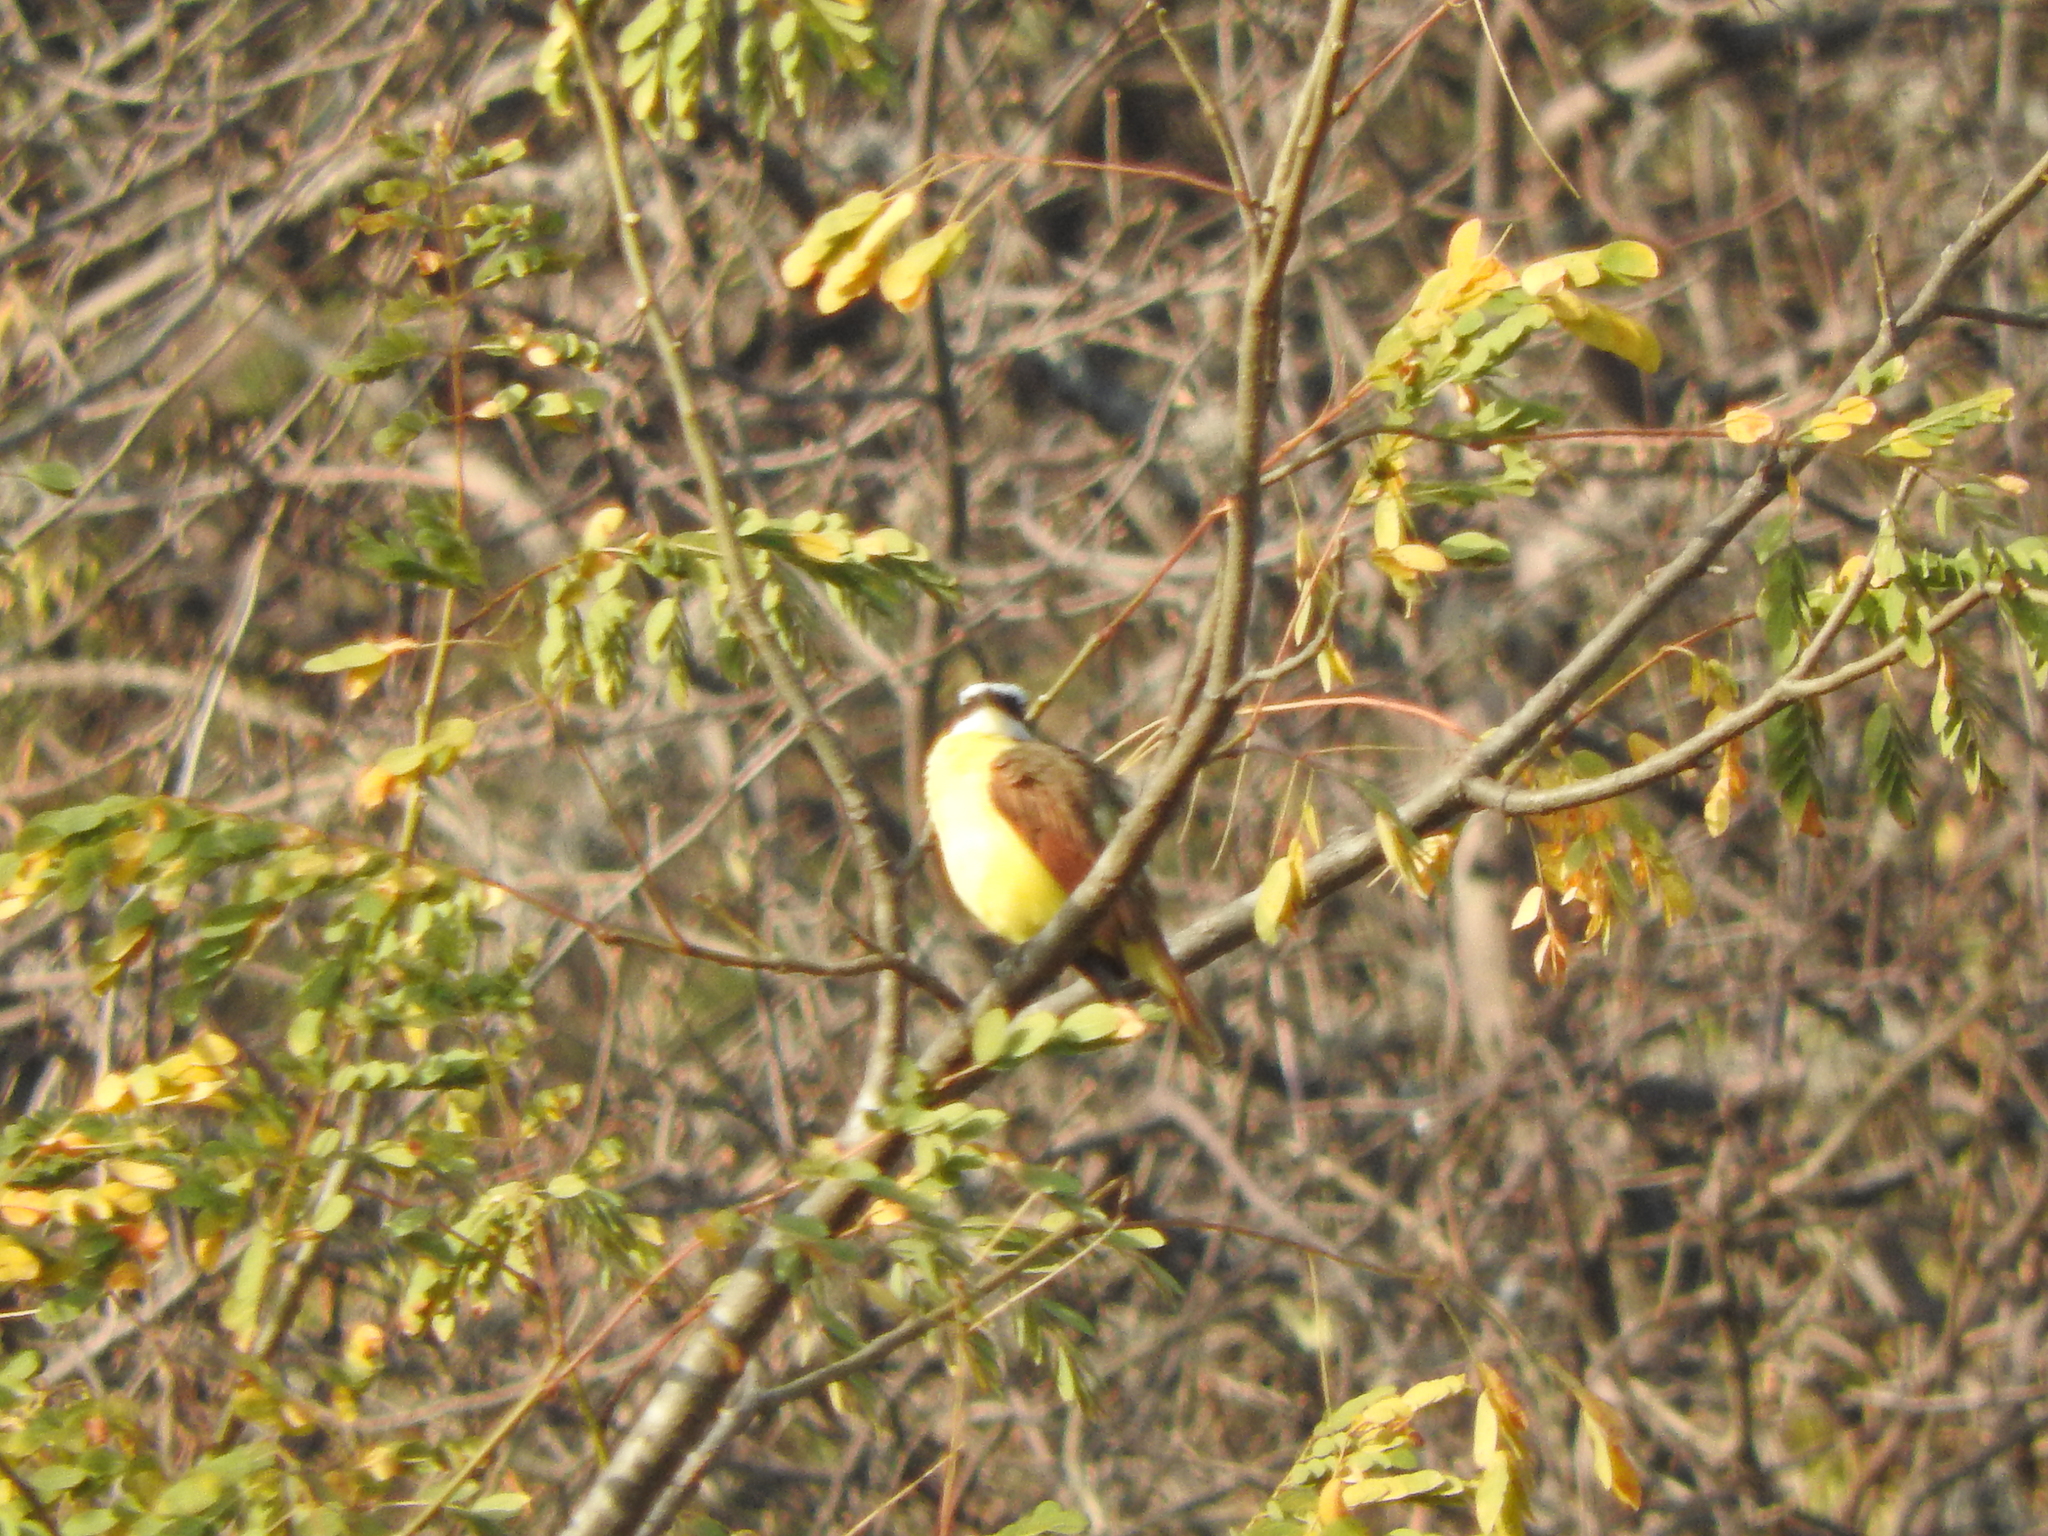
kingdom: Animalia
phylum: Chordata
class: Aves
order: Passeriformes
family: Tyrannidae
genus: Pitangus
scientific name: Pitangus sulphuratus
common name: Great kiskadee
